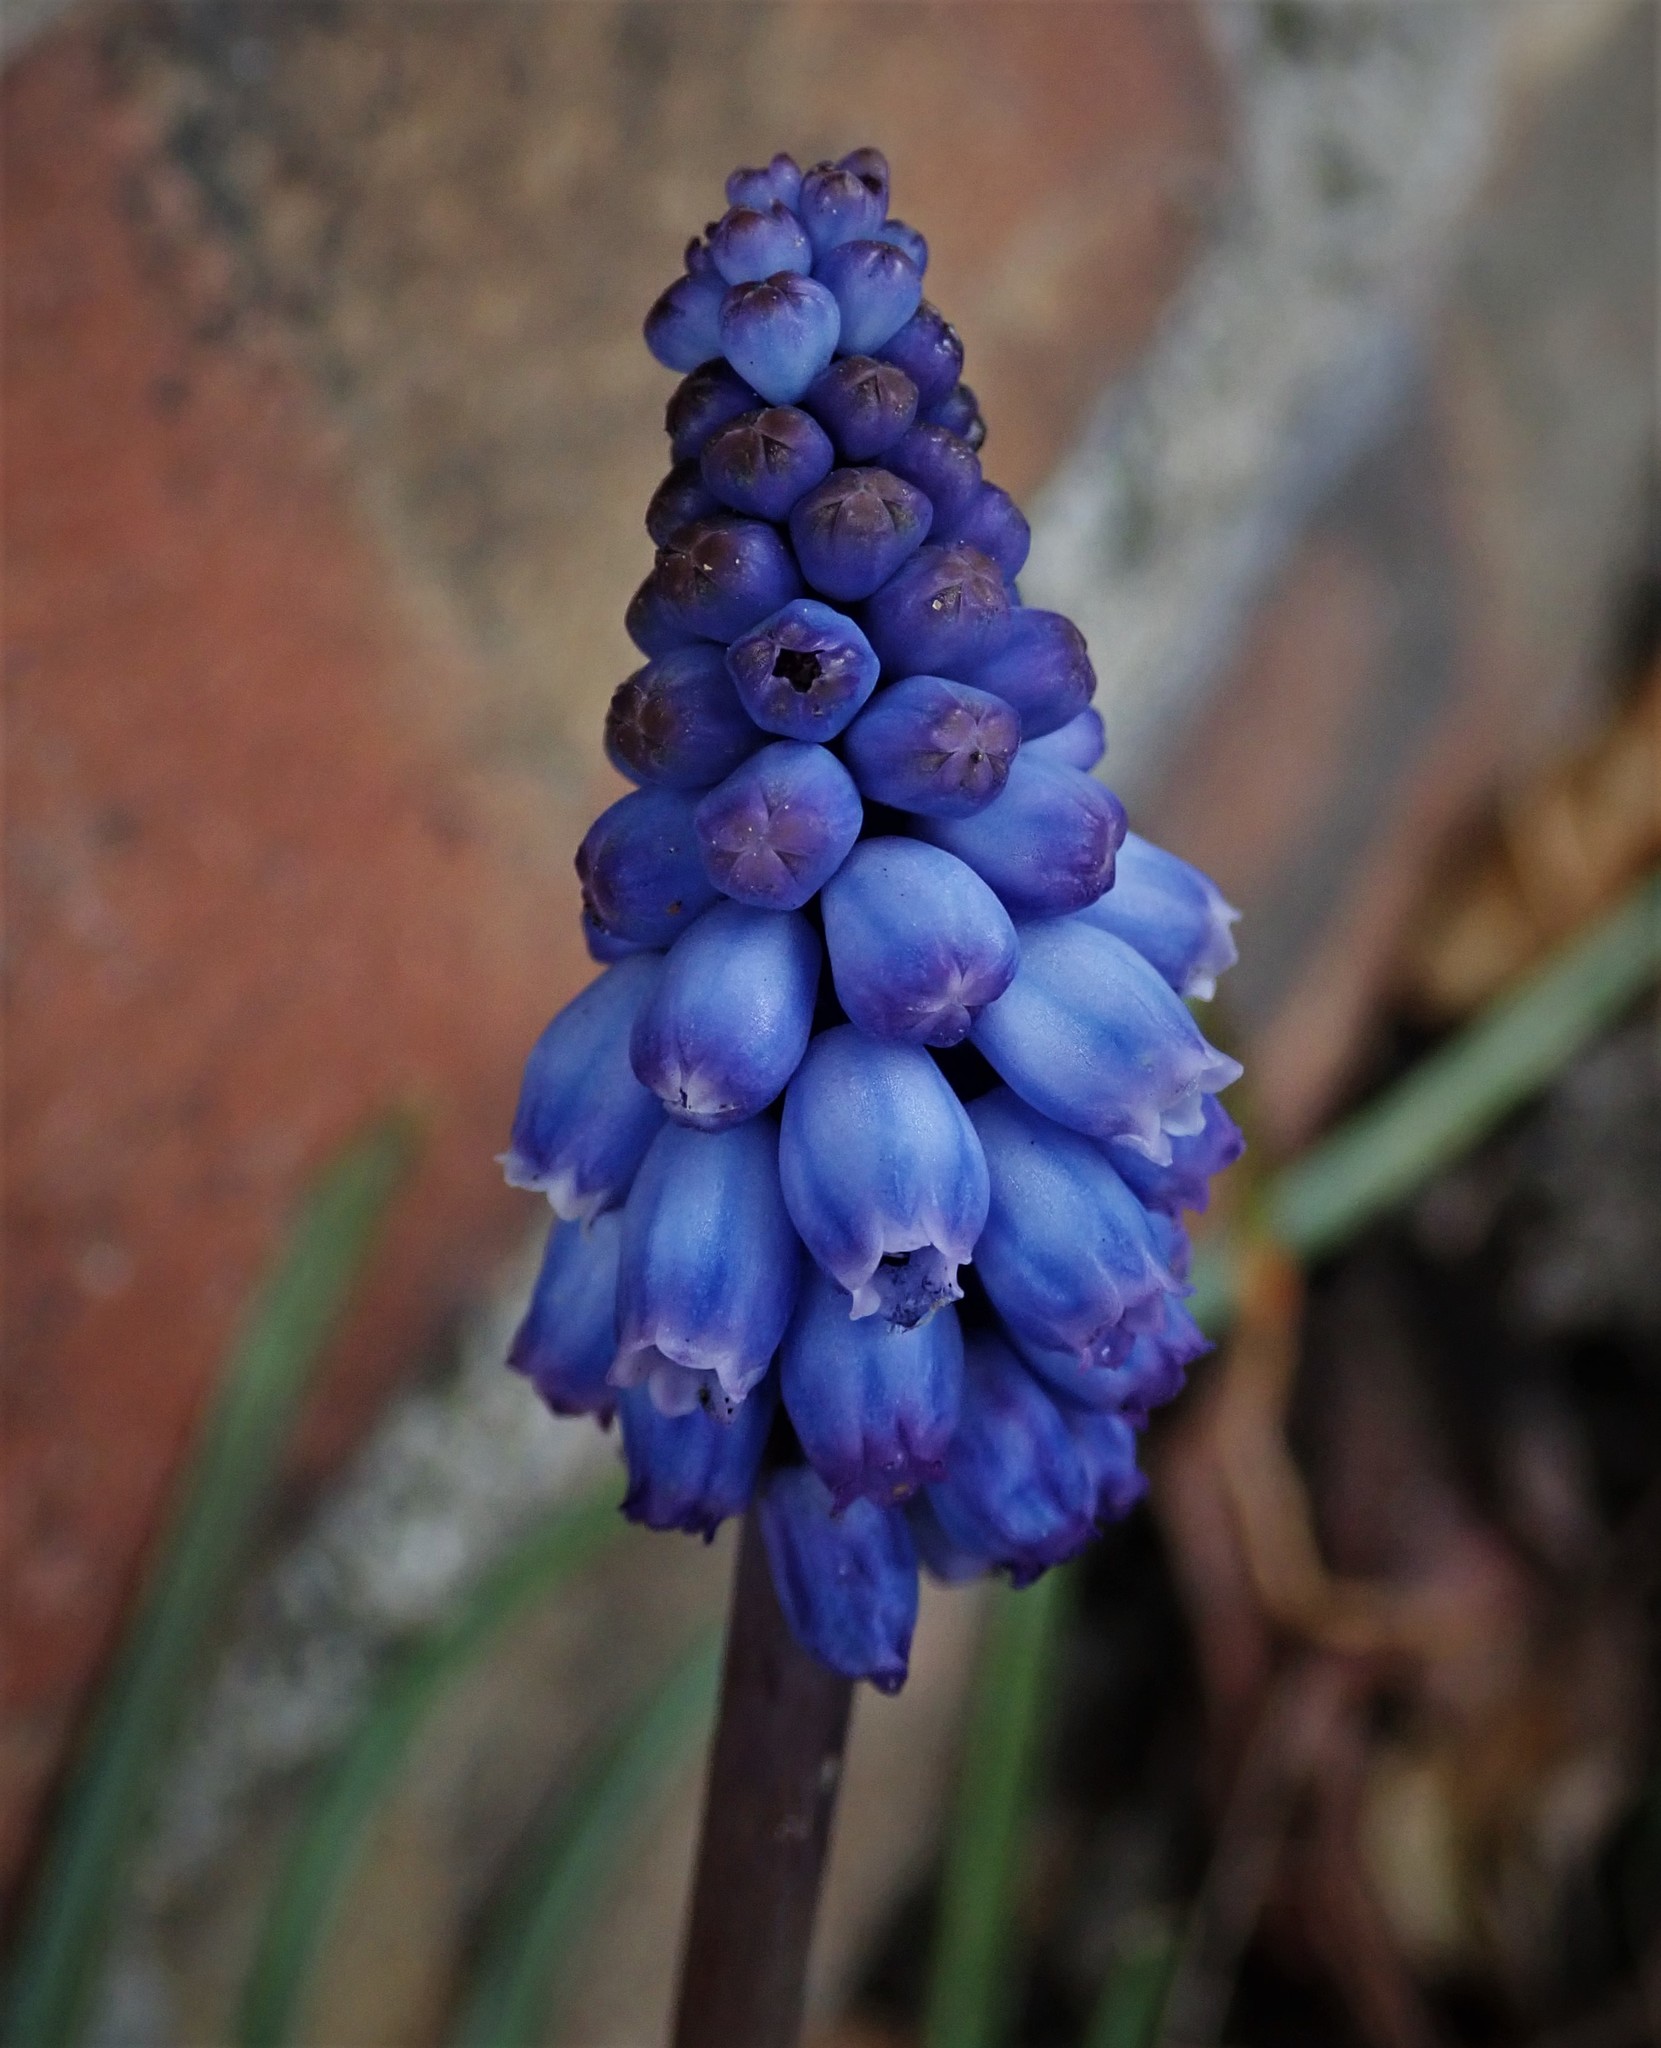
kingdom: Plantae
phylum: Tracheophyta
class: Liliopsida
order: Asparagales
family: Asparagaceae
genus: Muscari
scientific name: Muscari armeniacum
